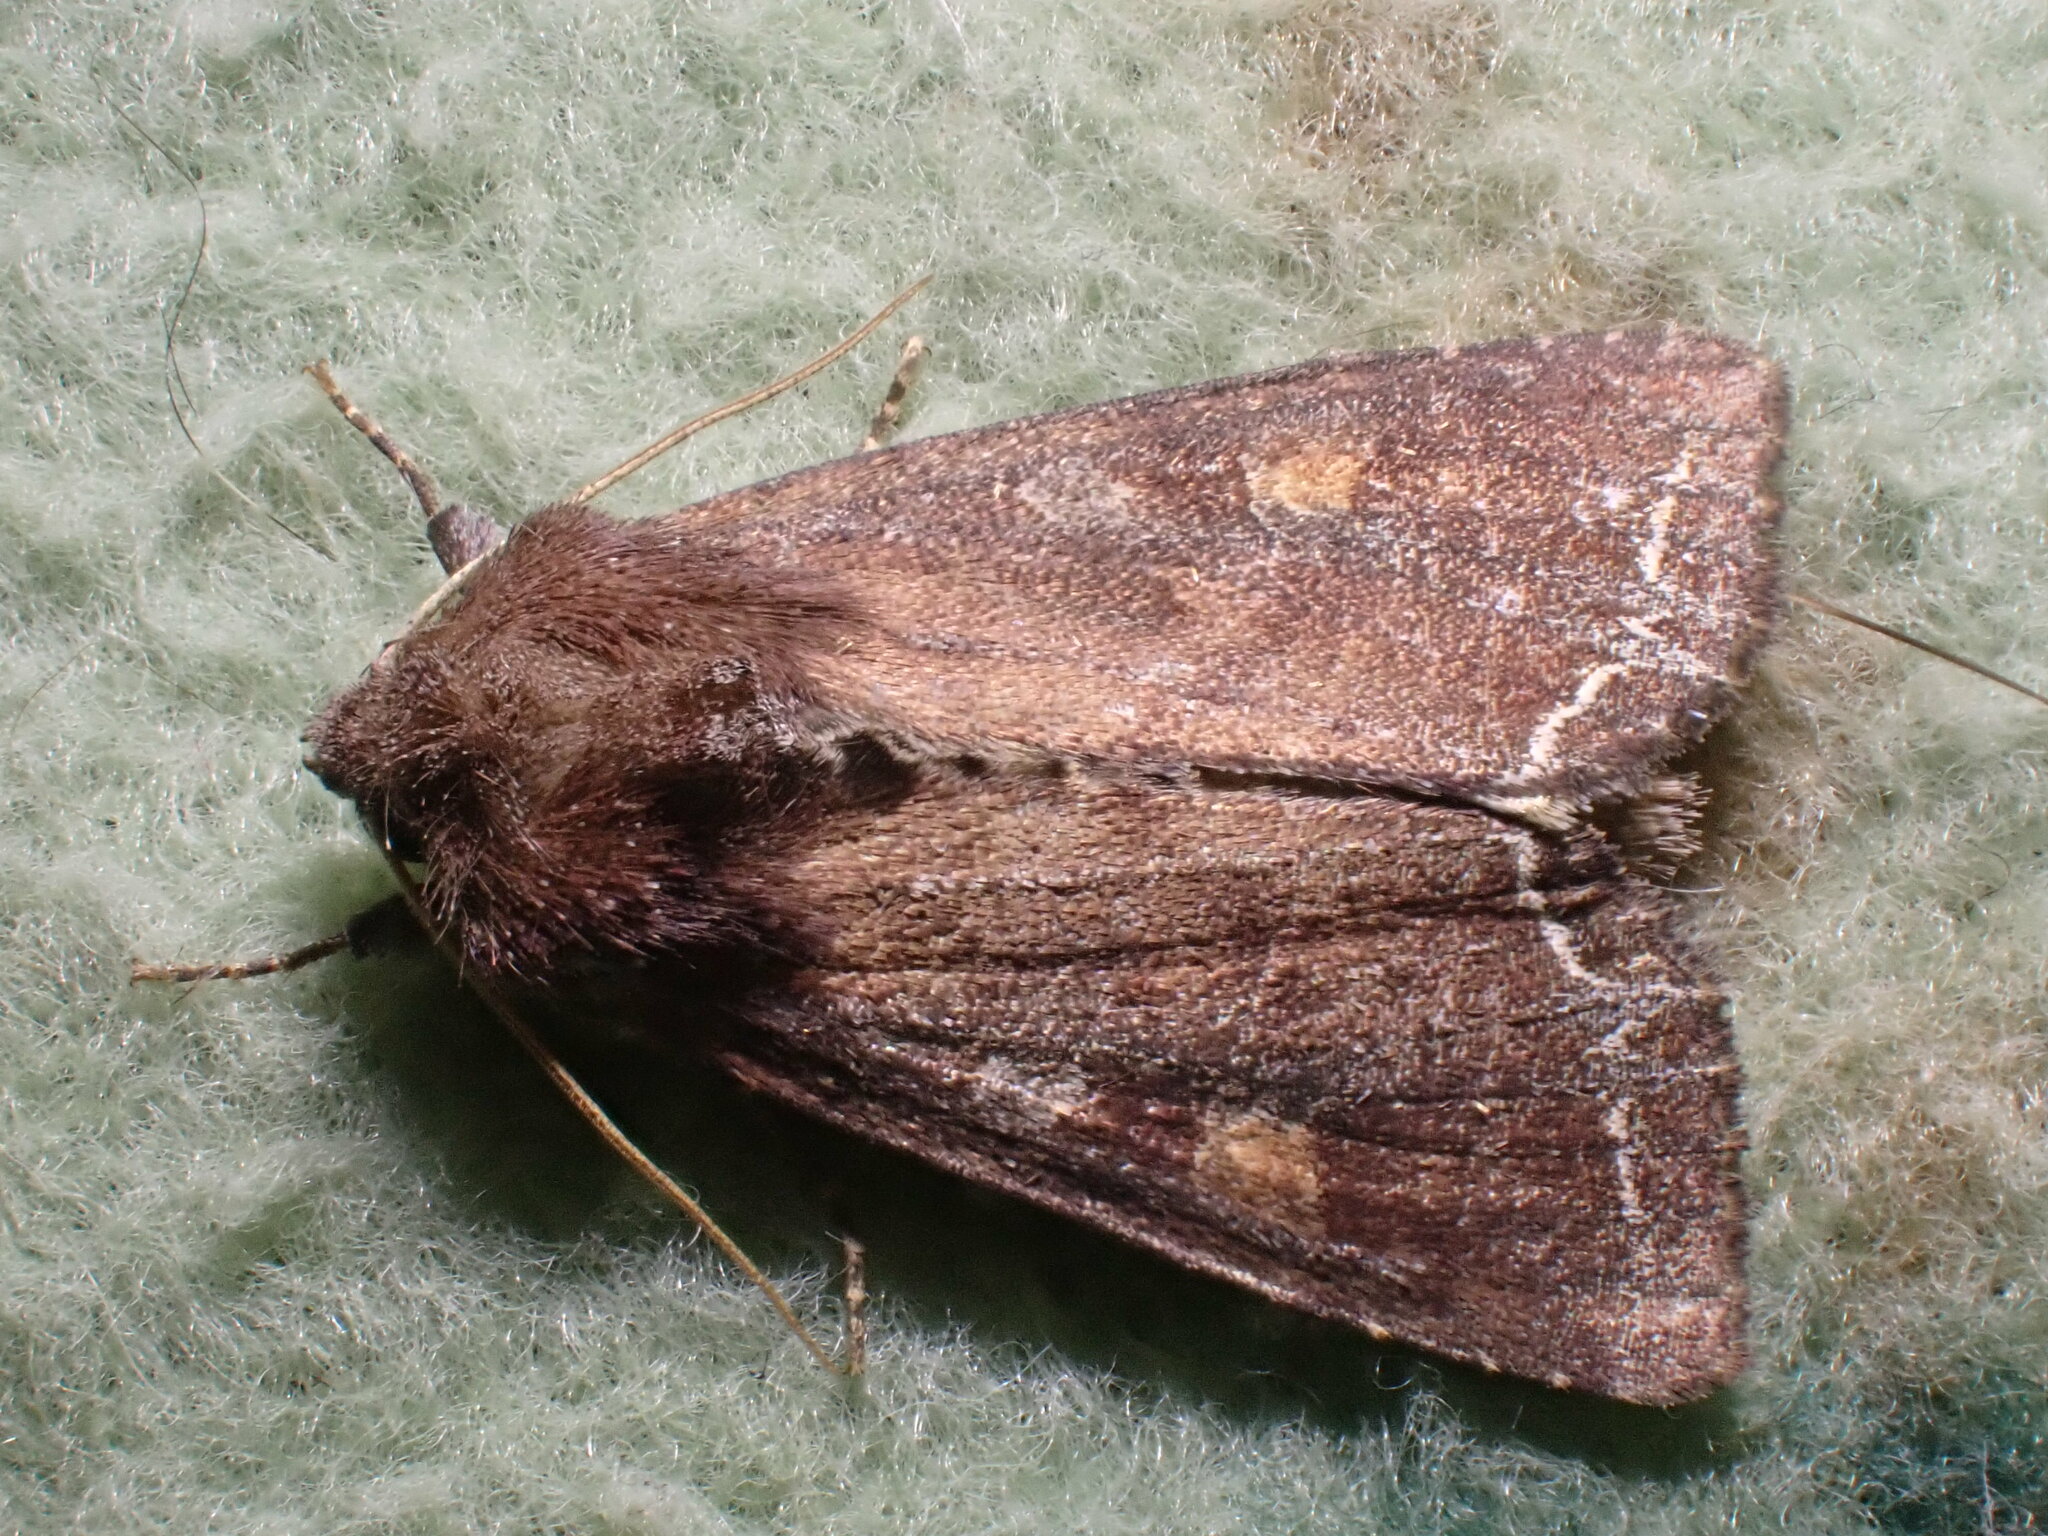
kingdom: Animalia
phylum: Arthropoda
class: Insecta
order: Lepidoptera
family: Noctuidae
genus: Lacanobia
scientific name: Lacanobia oleracea
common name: Bright-line brown-eye
